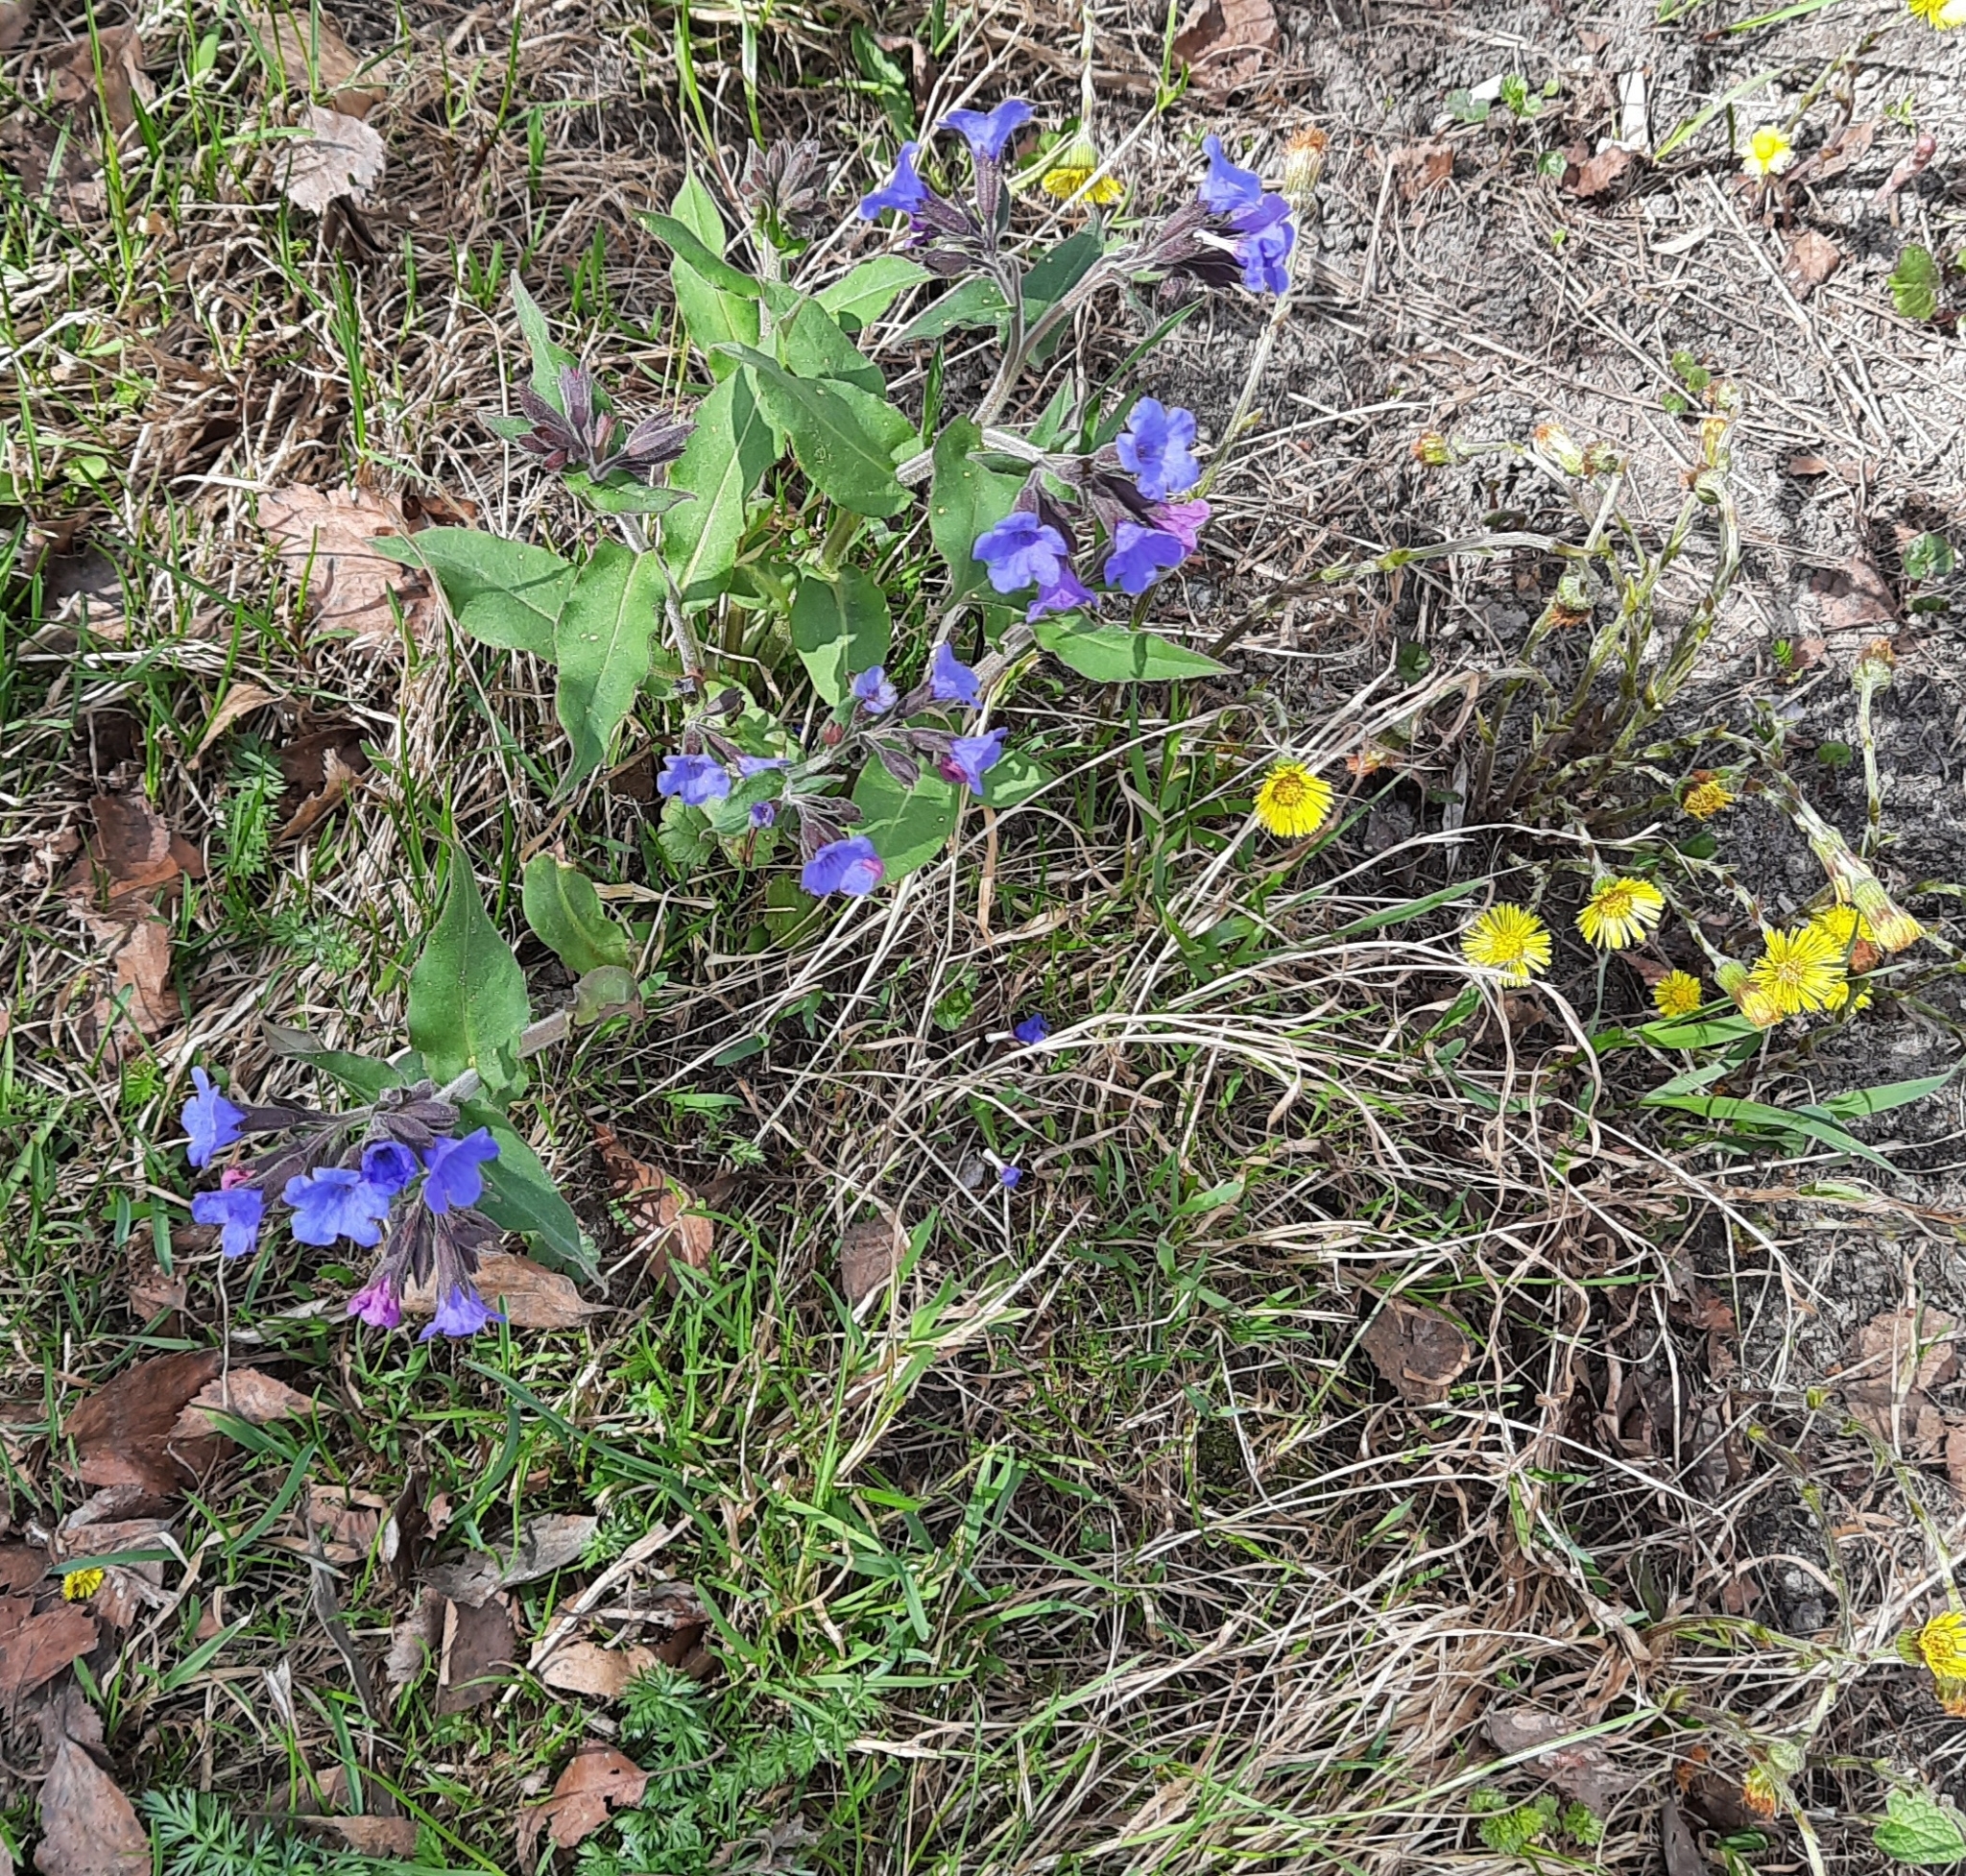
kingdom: Plantae
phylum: Tracheophyta
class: Magnoliopsida
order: Boraginales
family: Boraginaceae
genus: Pulmonaria
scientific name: Pulmonaria mollis
